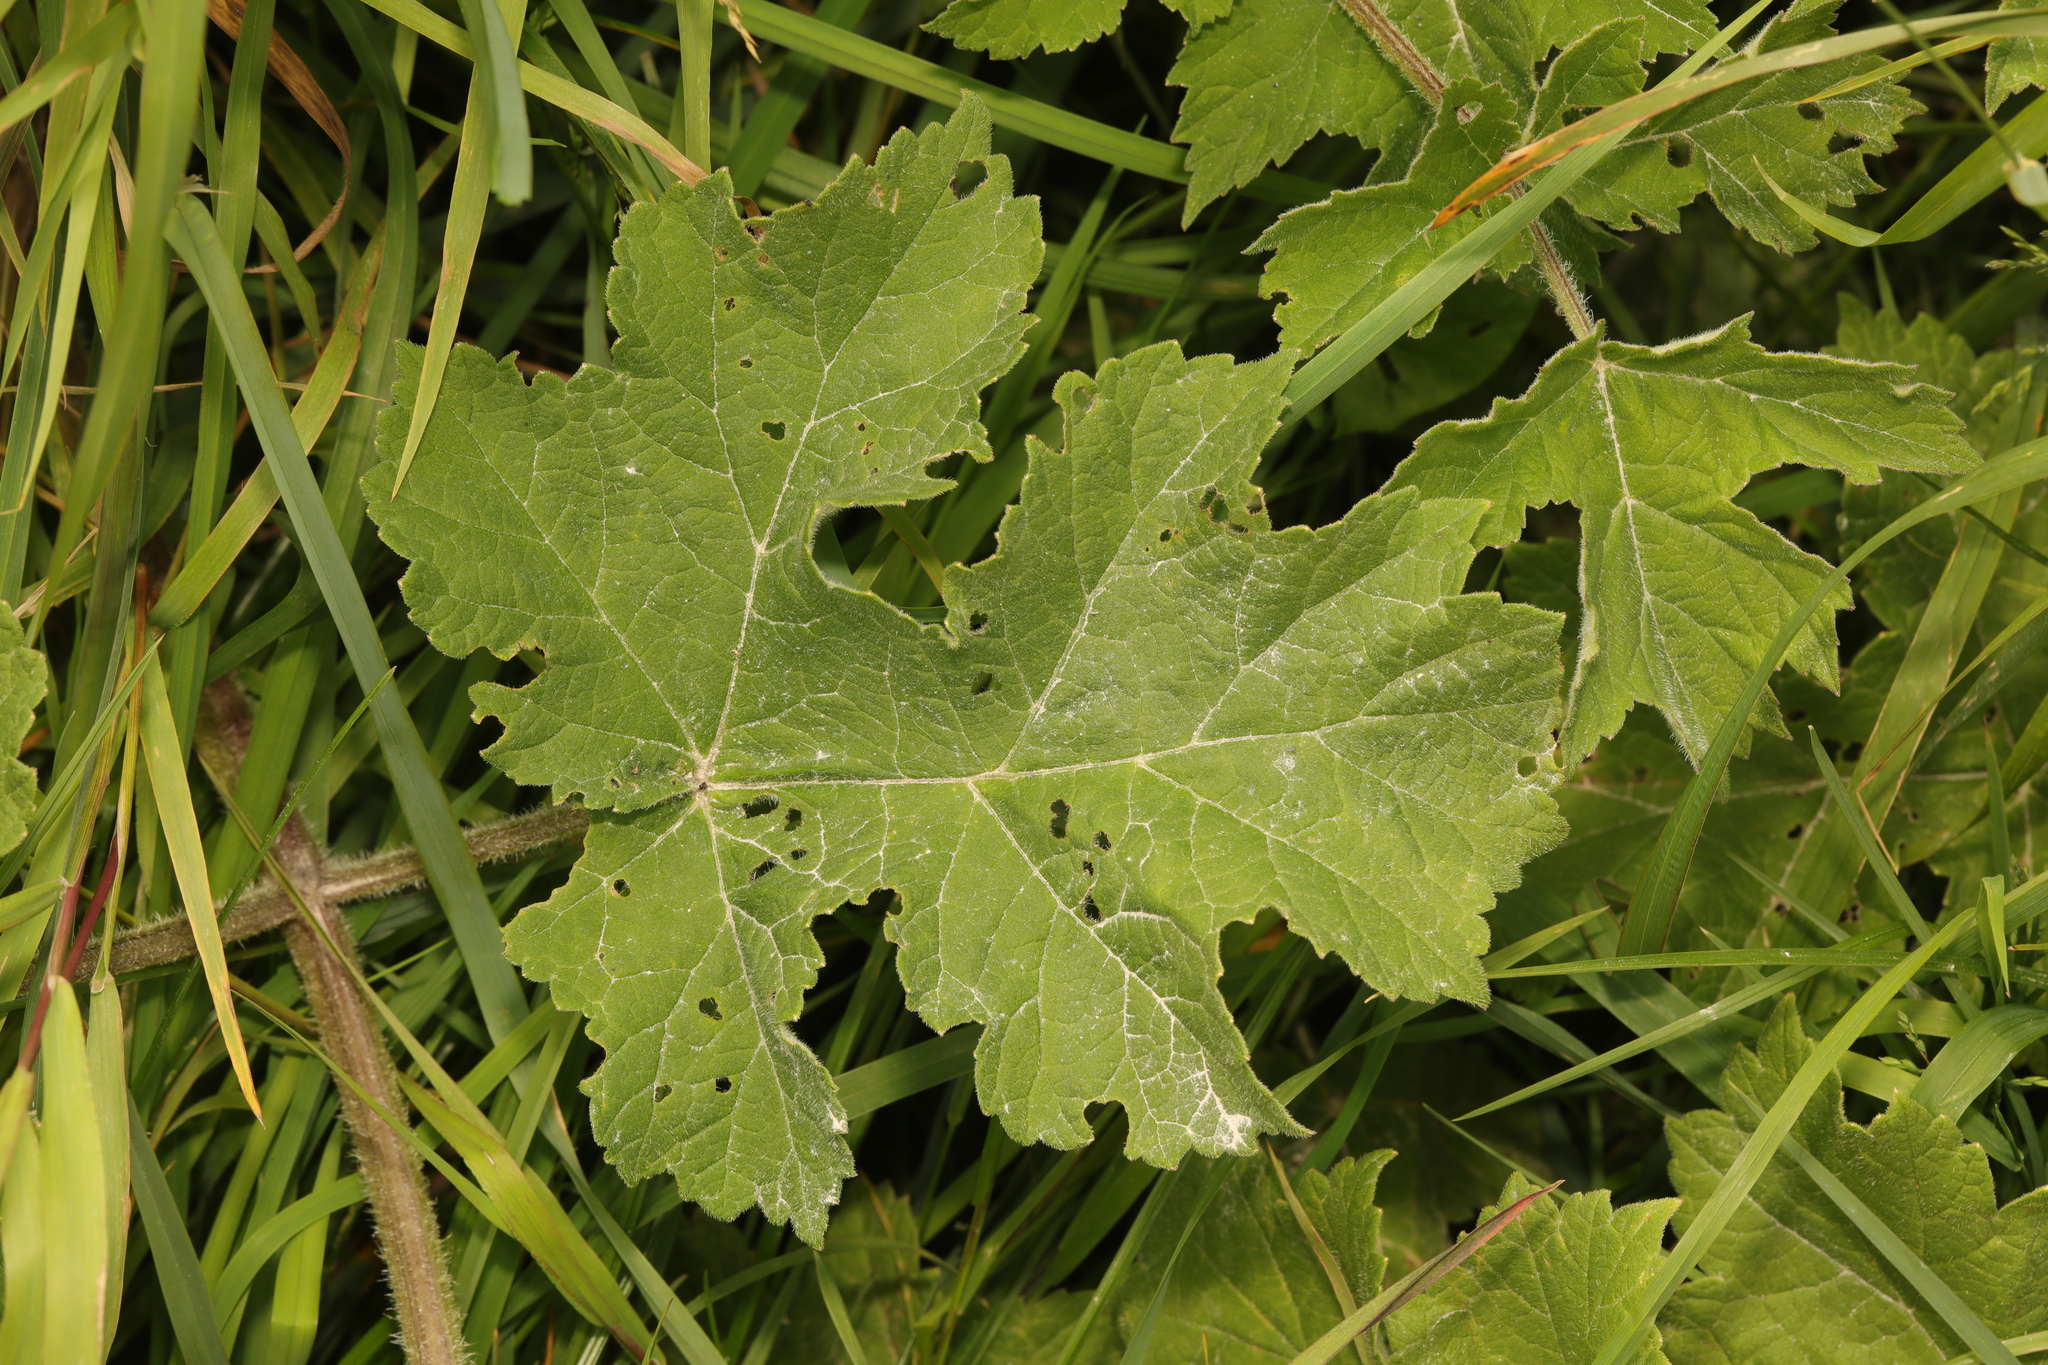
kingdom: Plantae
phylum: Tracheophyta
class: Magnoliopsida
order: Apiales
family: Apiaceae
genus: Heracleum
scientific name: Heracleum sphondylium
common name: Hogweed
